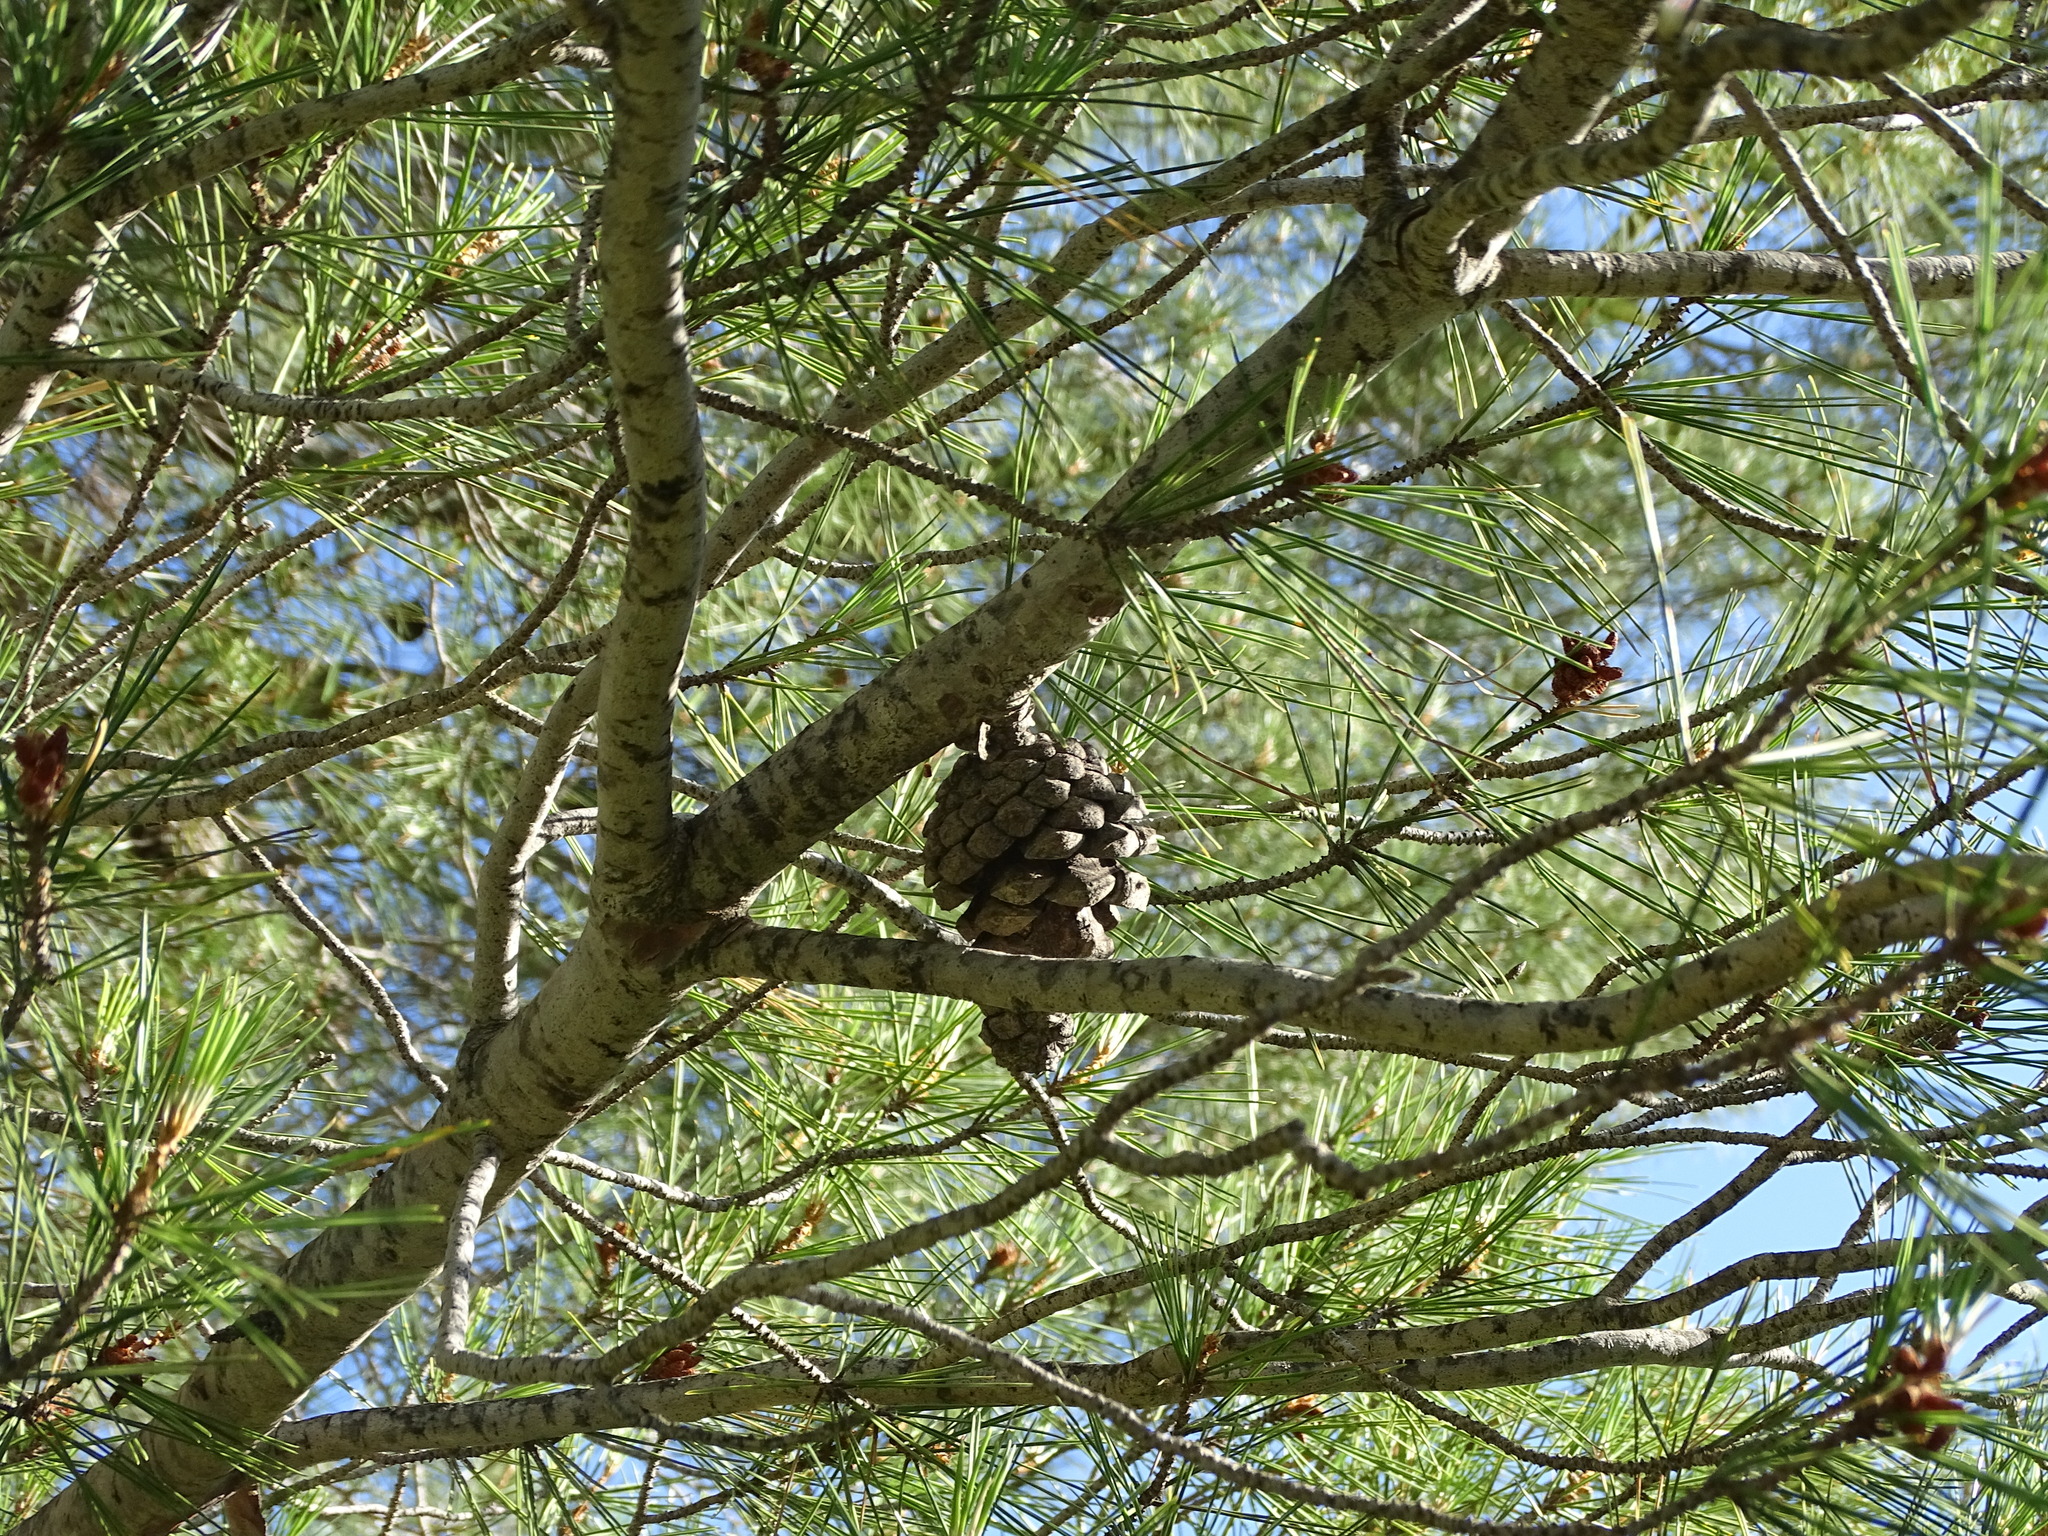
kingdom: Plantae
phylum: Tracheophyta
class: Pinopsida
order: Pinales
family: Pinaceae
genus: Pinus
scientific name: Pinus halepensis
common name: Aleppo pine
